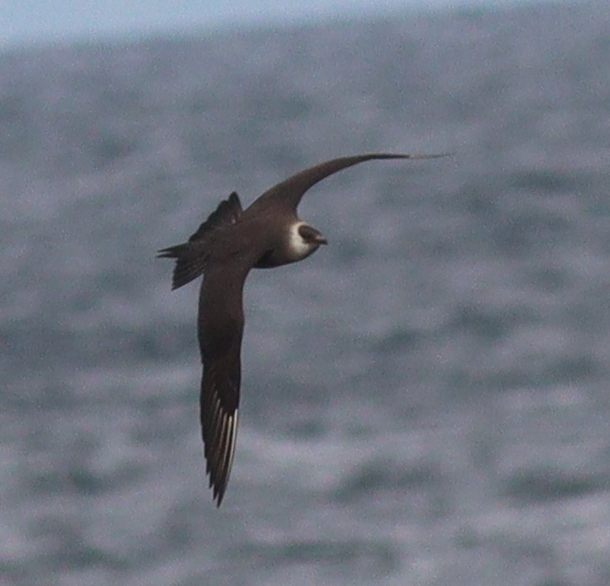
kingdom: Animalia
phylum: Chordata
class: Aves
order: Charadriiformes
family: Stercorariidae
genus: Stercorarius
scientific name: Stercorarius parasiticus
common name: Parasitic jaeger
